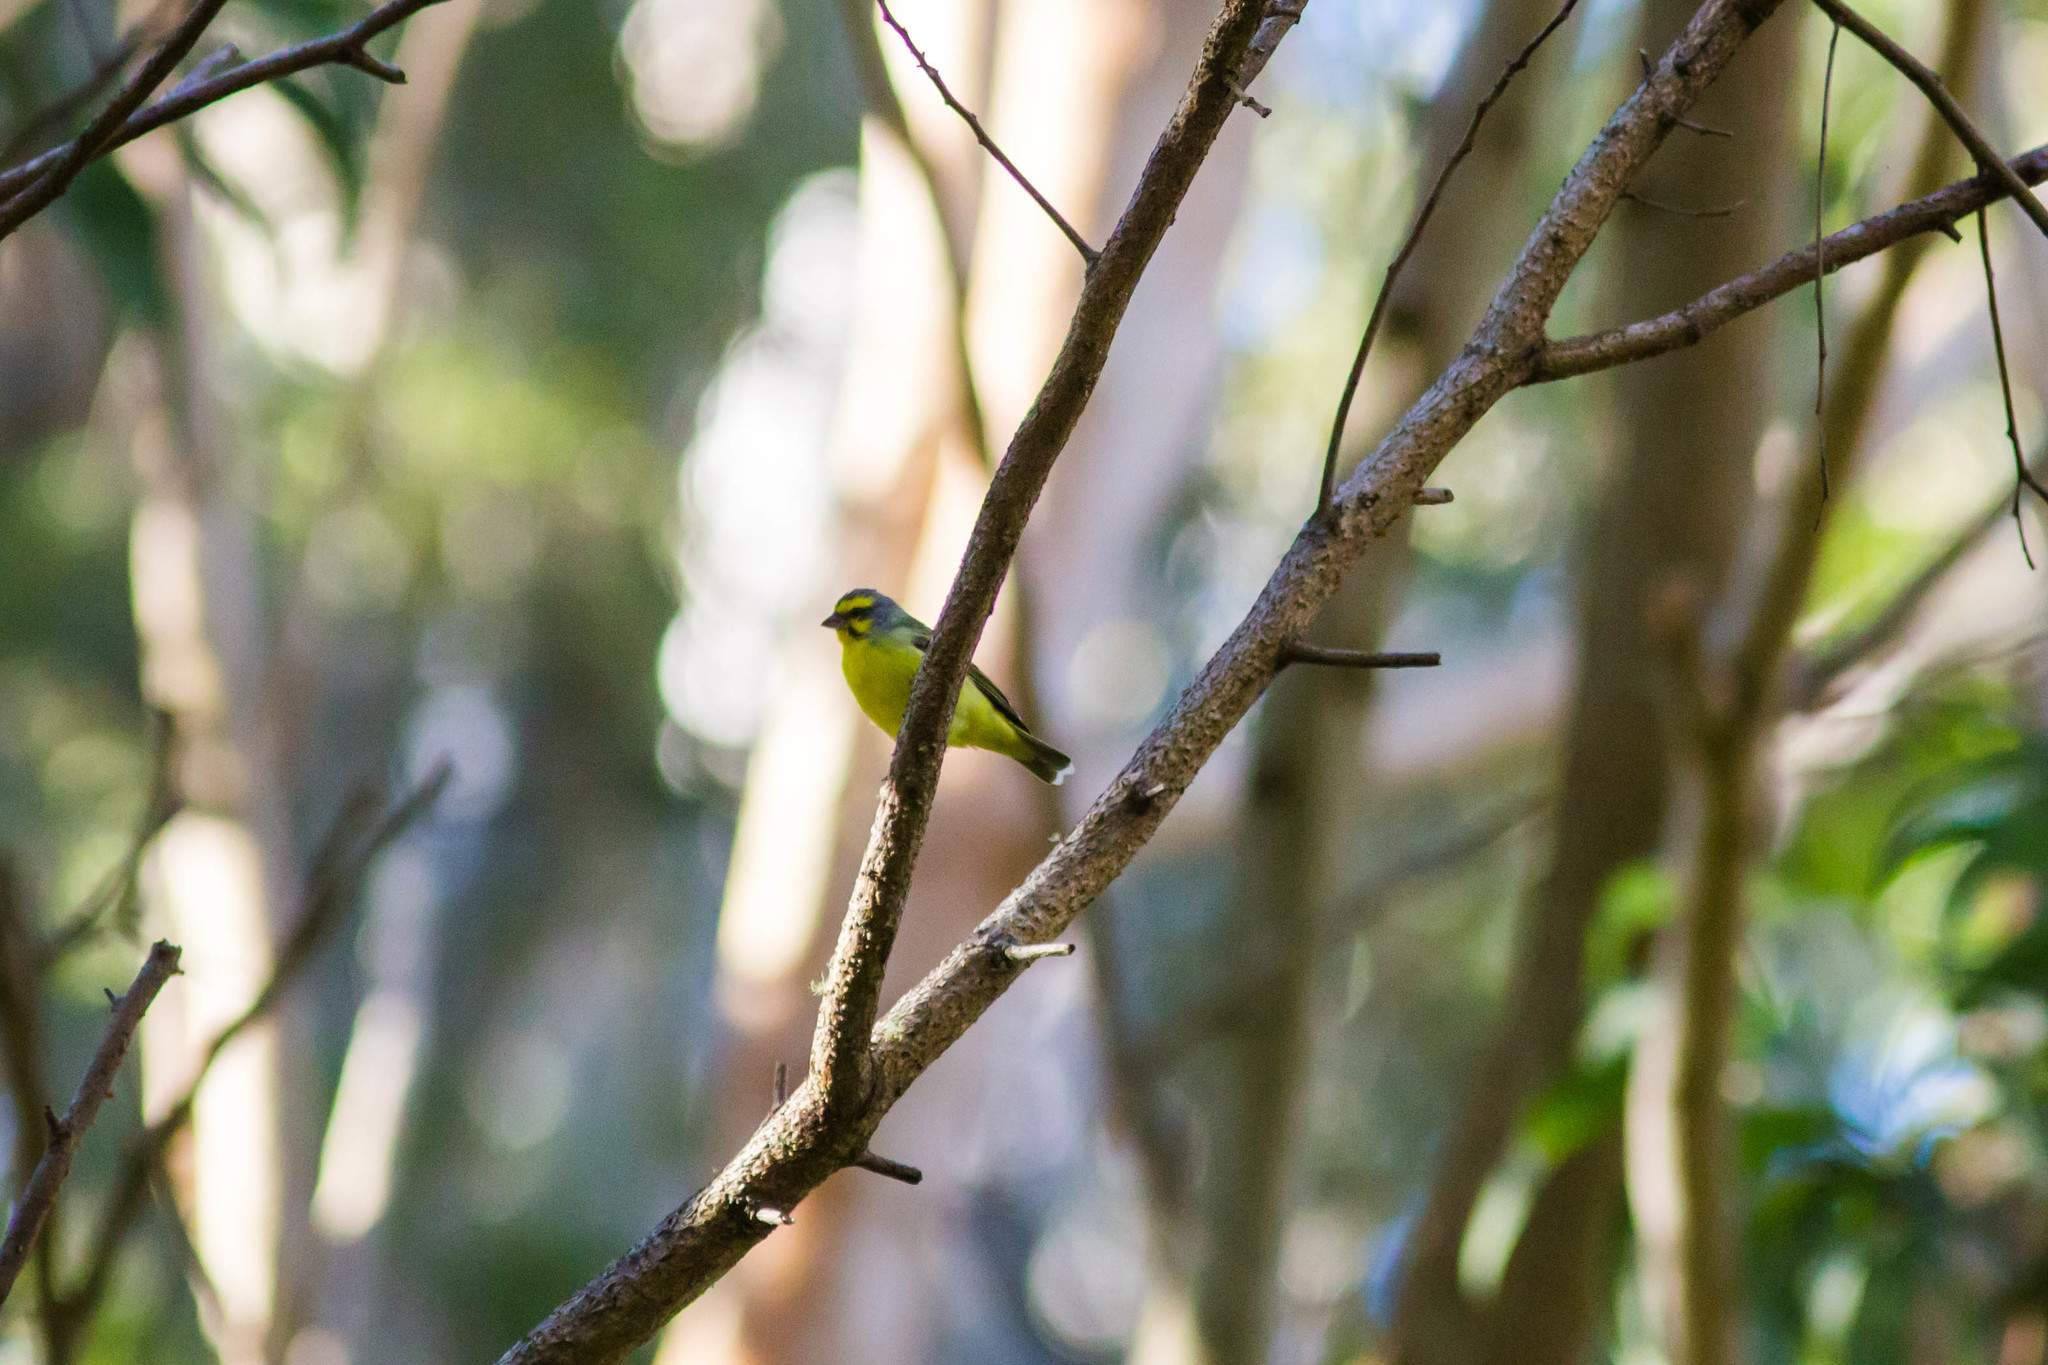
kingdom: Animalia
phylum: Chordata
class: Aves
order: Passeriformes
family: Fringillidae
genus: Crithagra
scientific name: Crithagra mozambica
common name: Yellow-fronted canary
